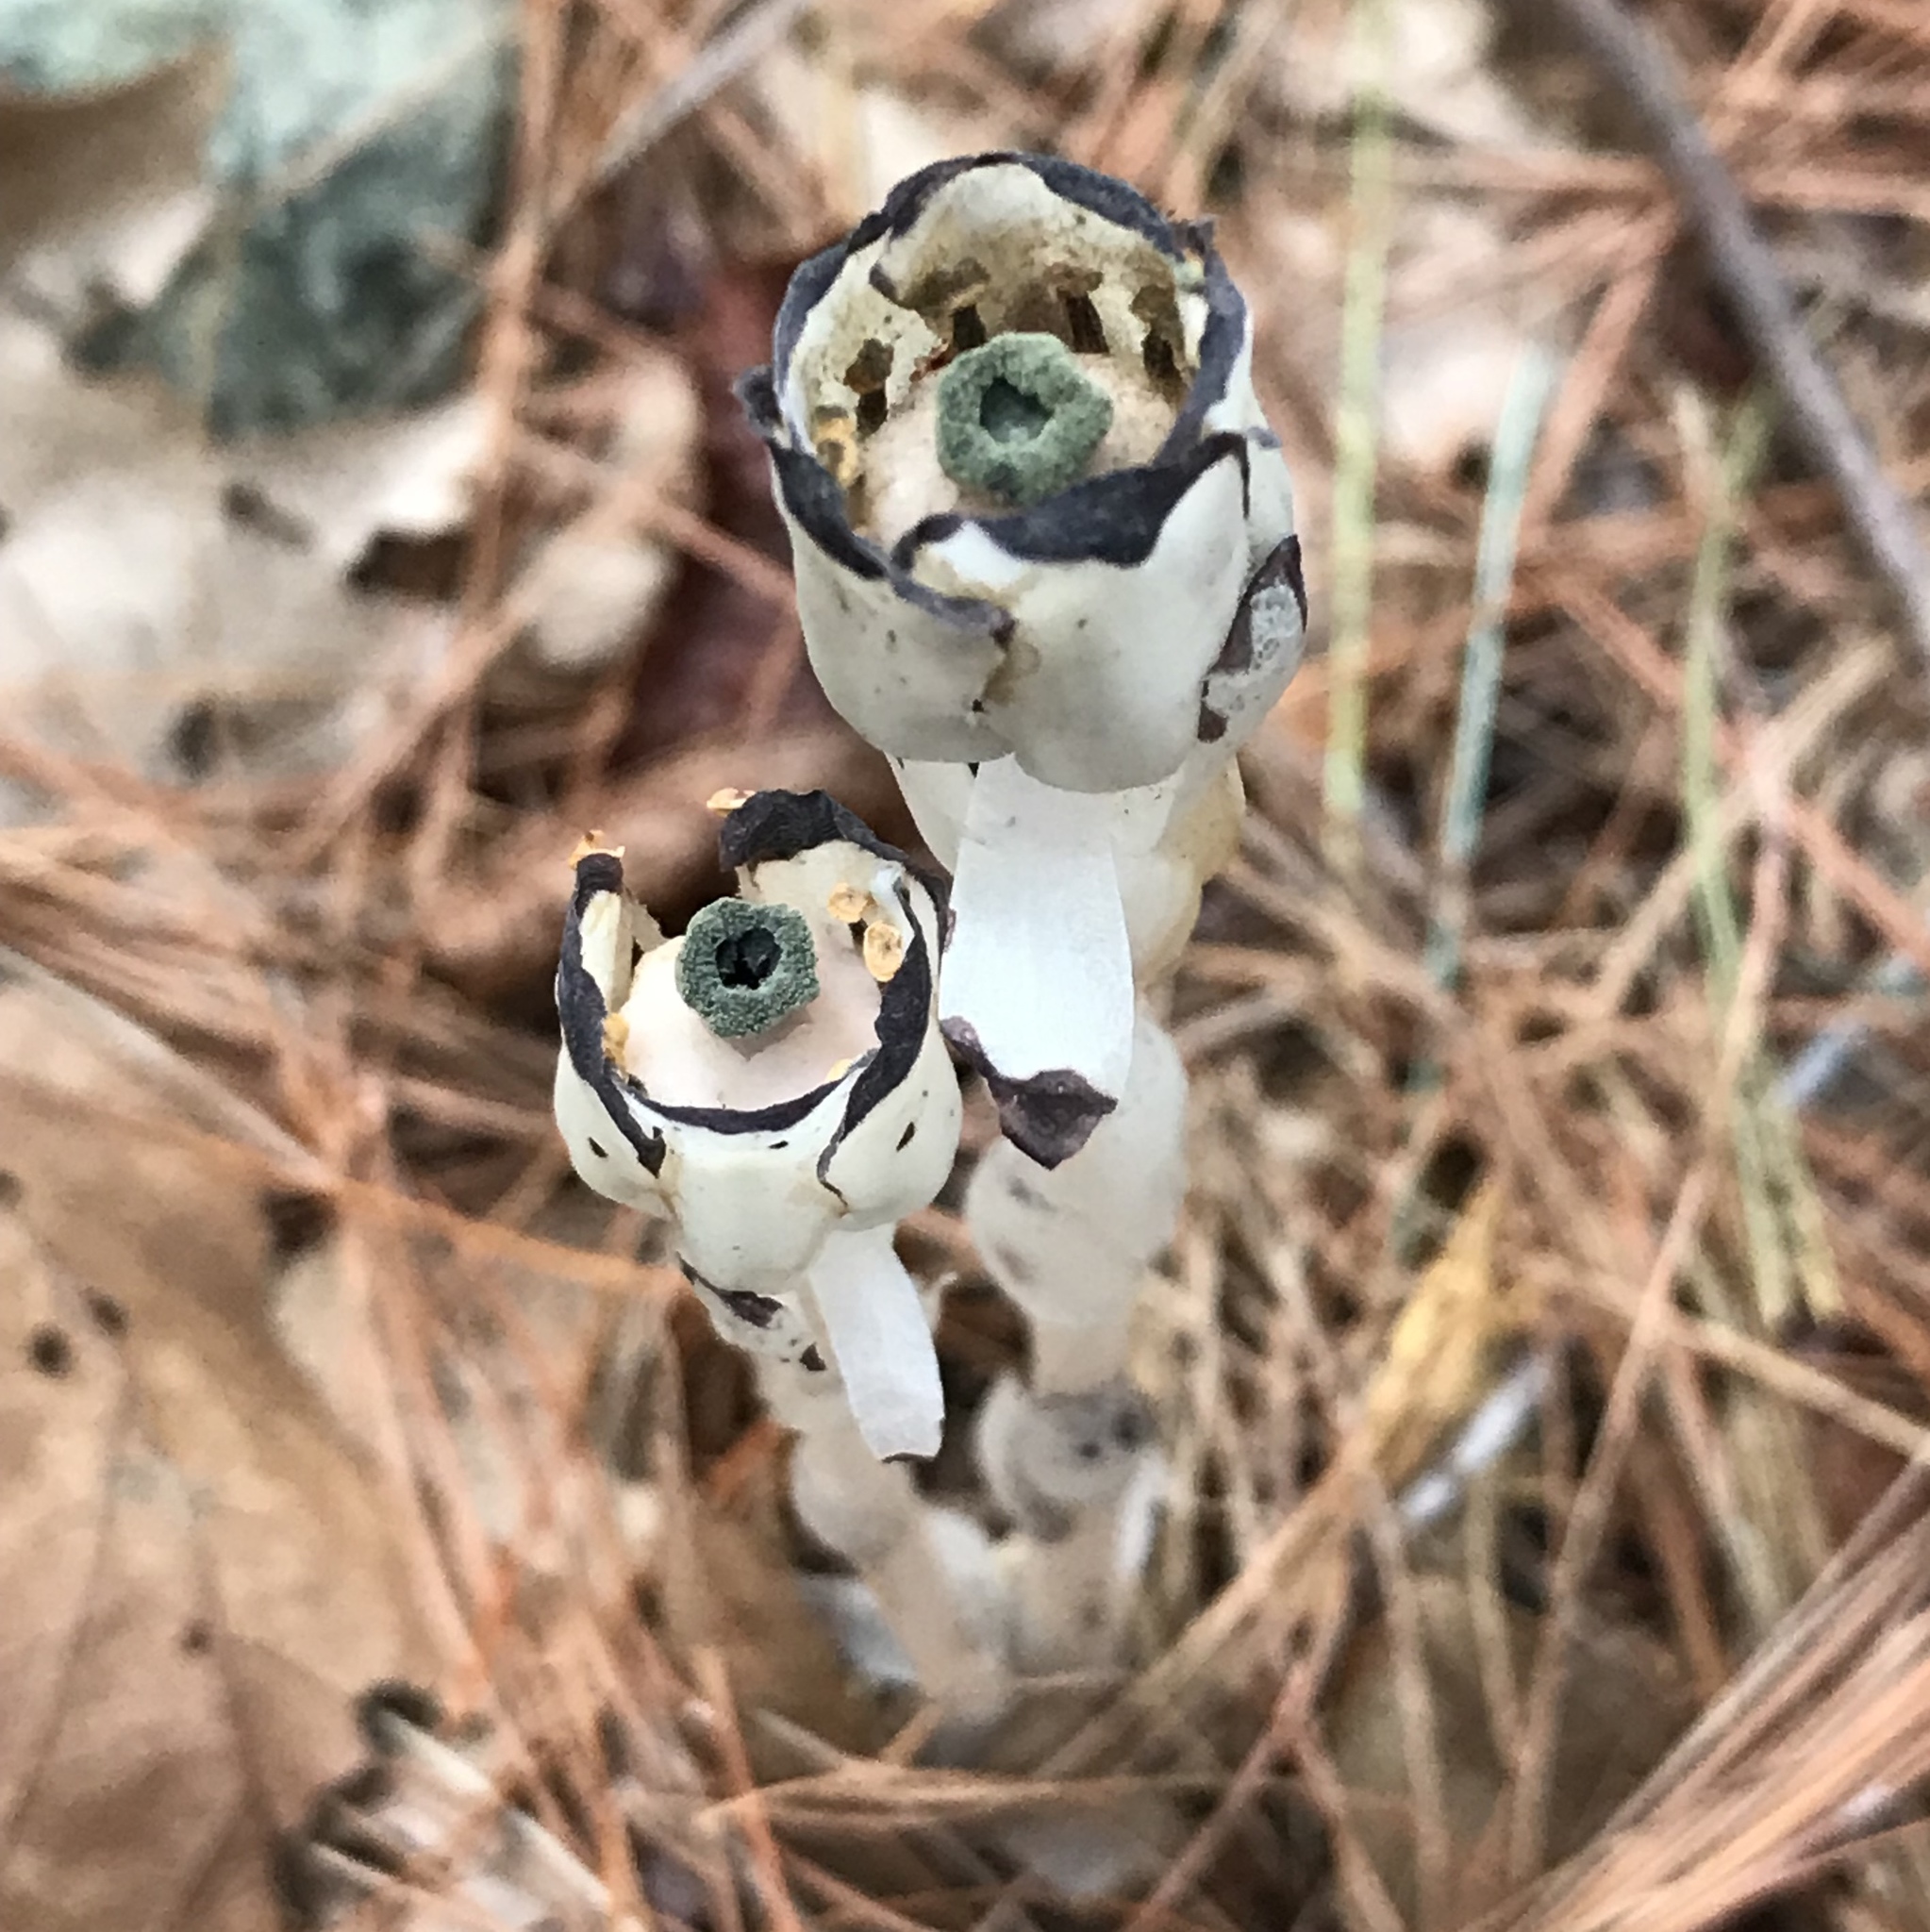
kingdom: Plantae
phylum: Tracheophyta
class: Magnoliopsida
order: Ericales
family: Ericaceae
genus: Monotropa
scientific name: Monotropa uniflora
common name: Convulsion root
